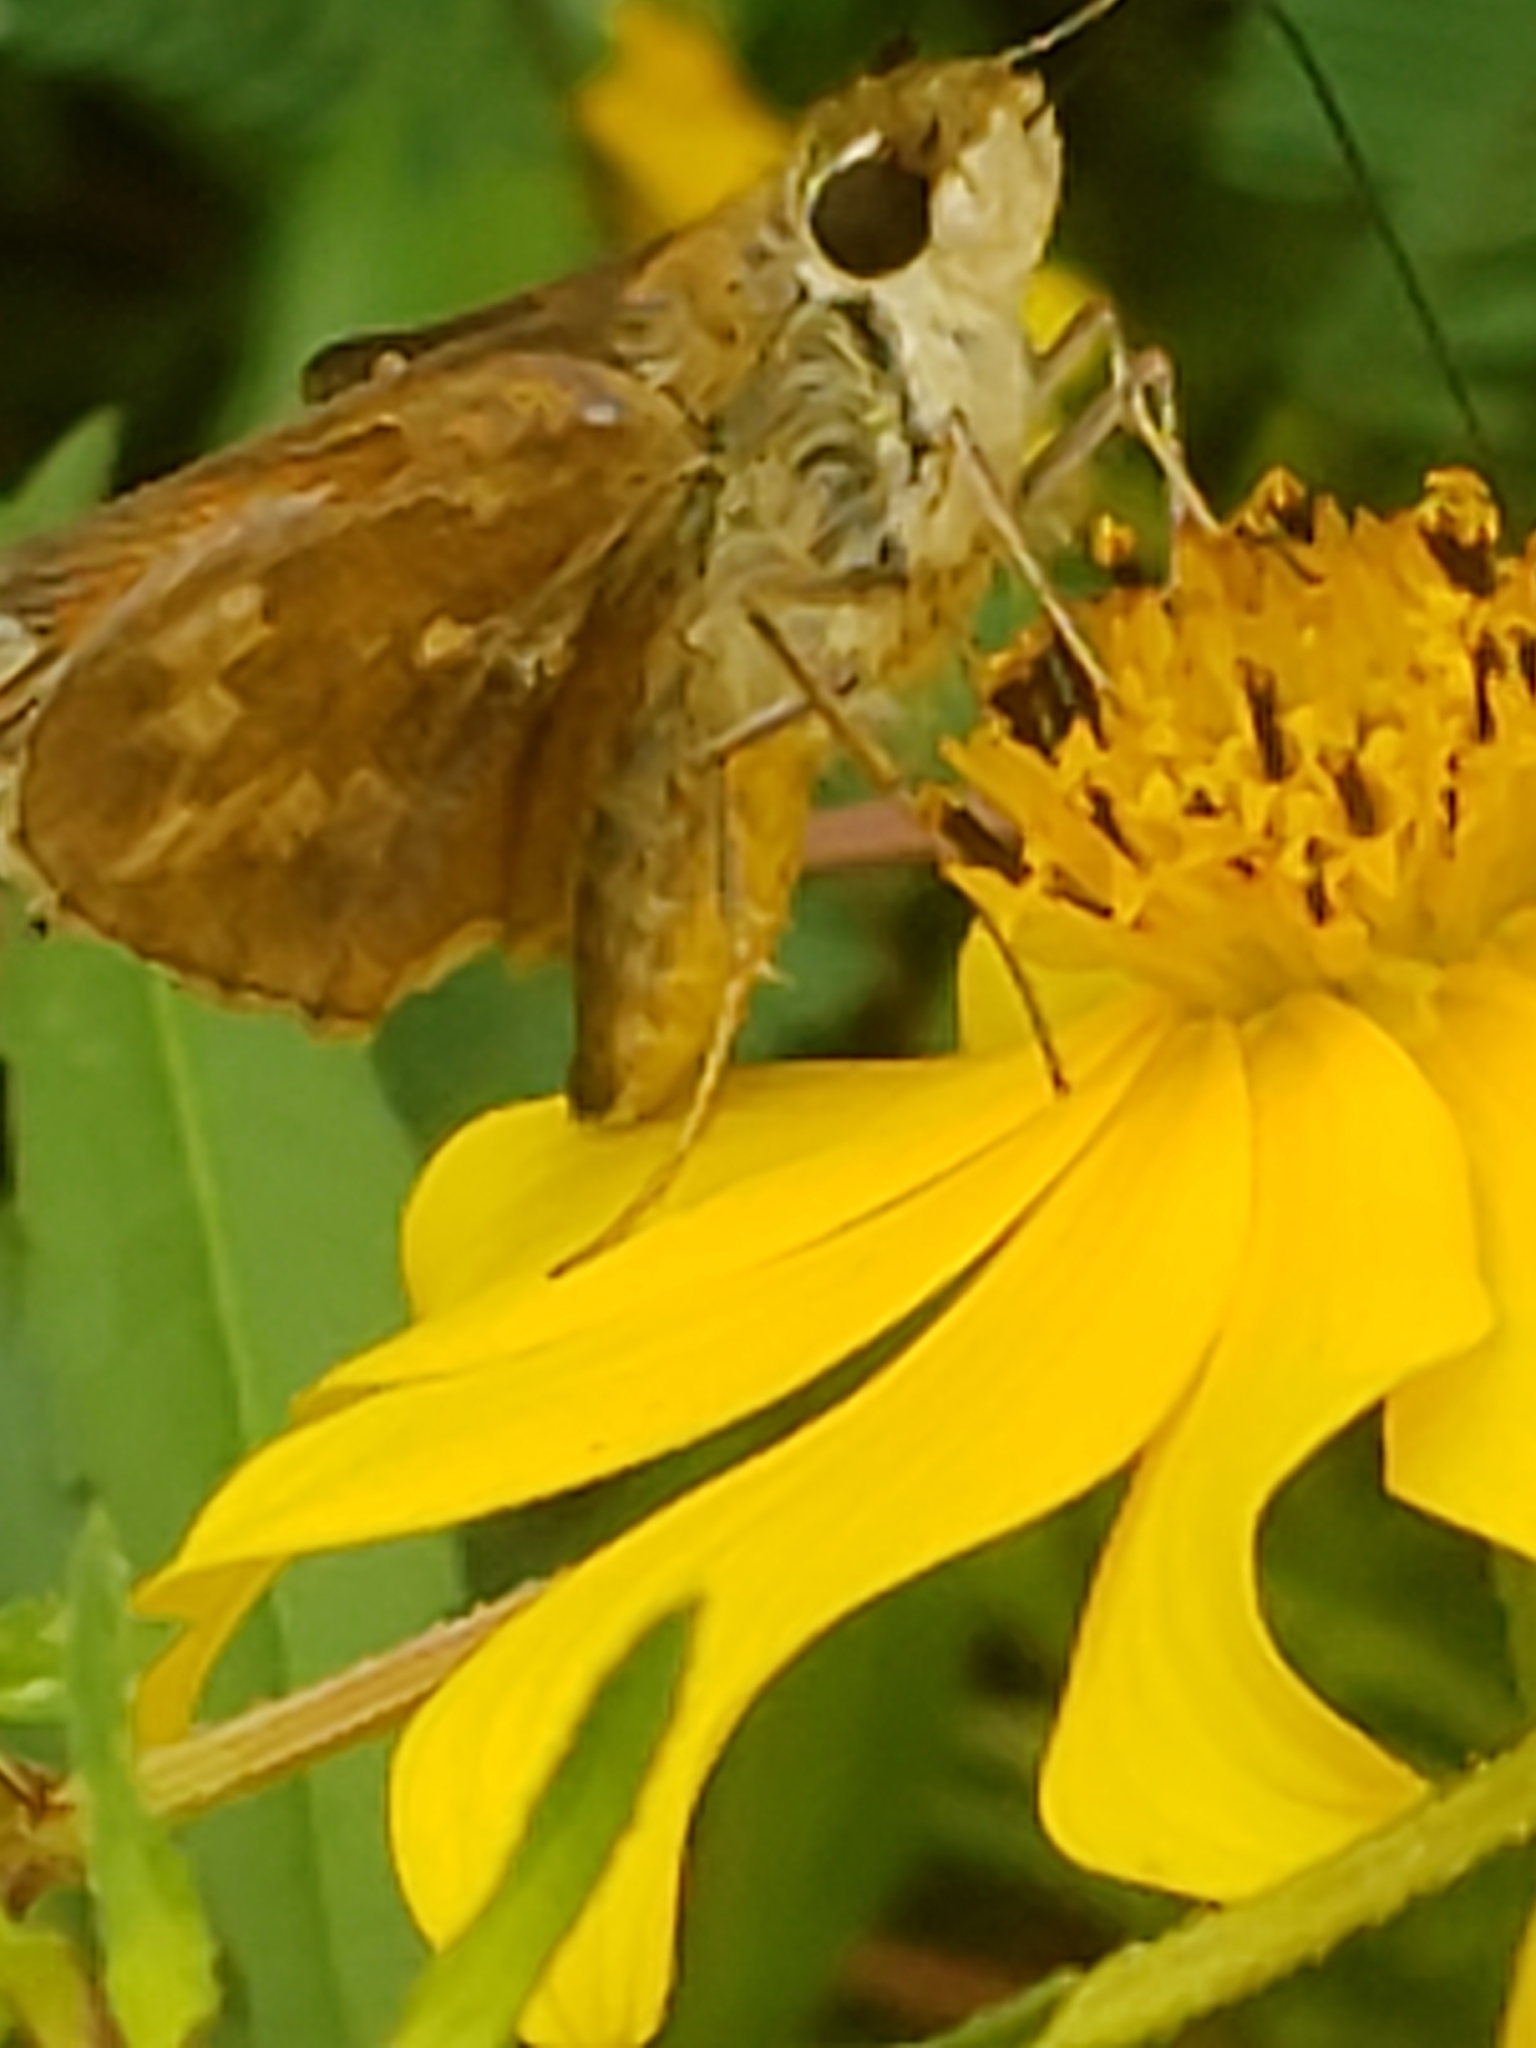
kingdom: Animalia
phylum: Arthropoda
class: Insecta
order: Lepidoptera
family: Hesperiidae
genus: Atalopedes
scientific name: Atalopedes
